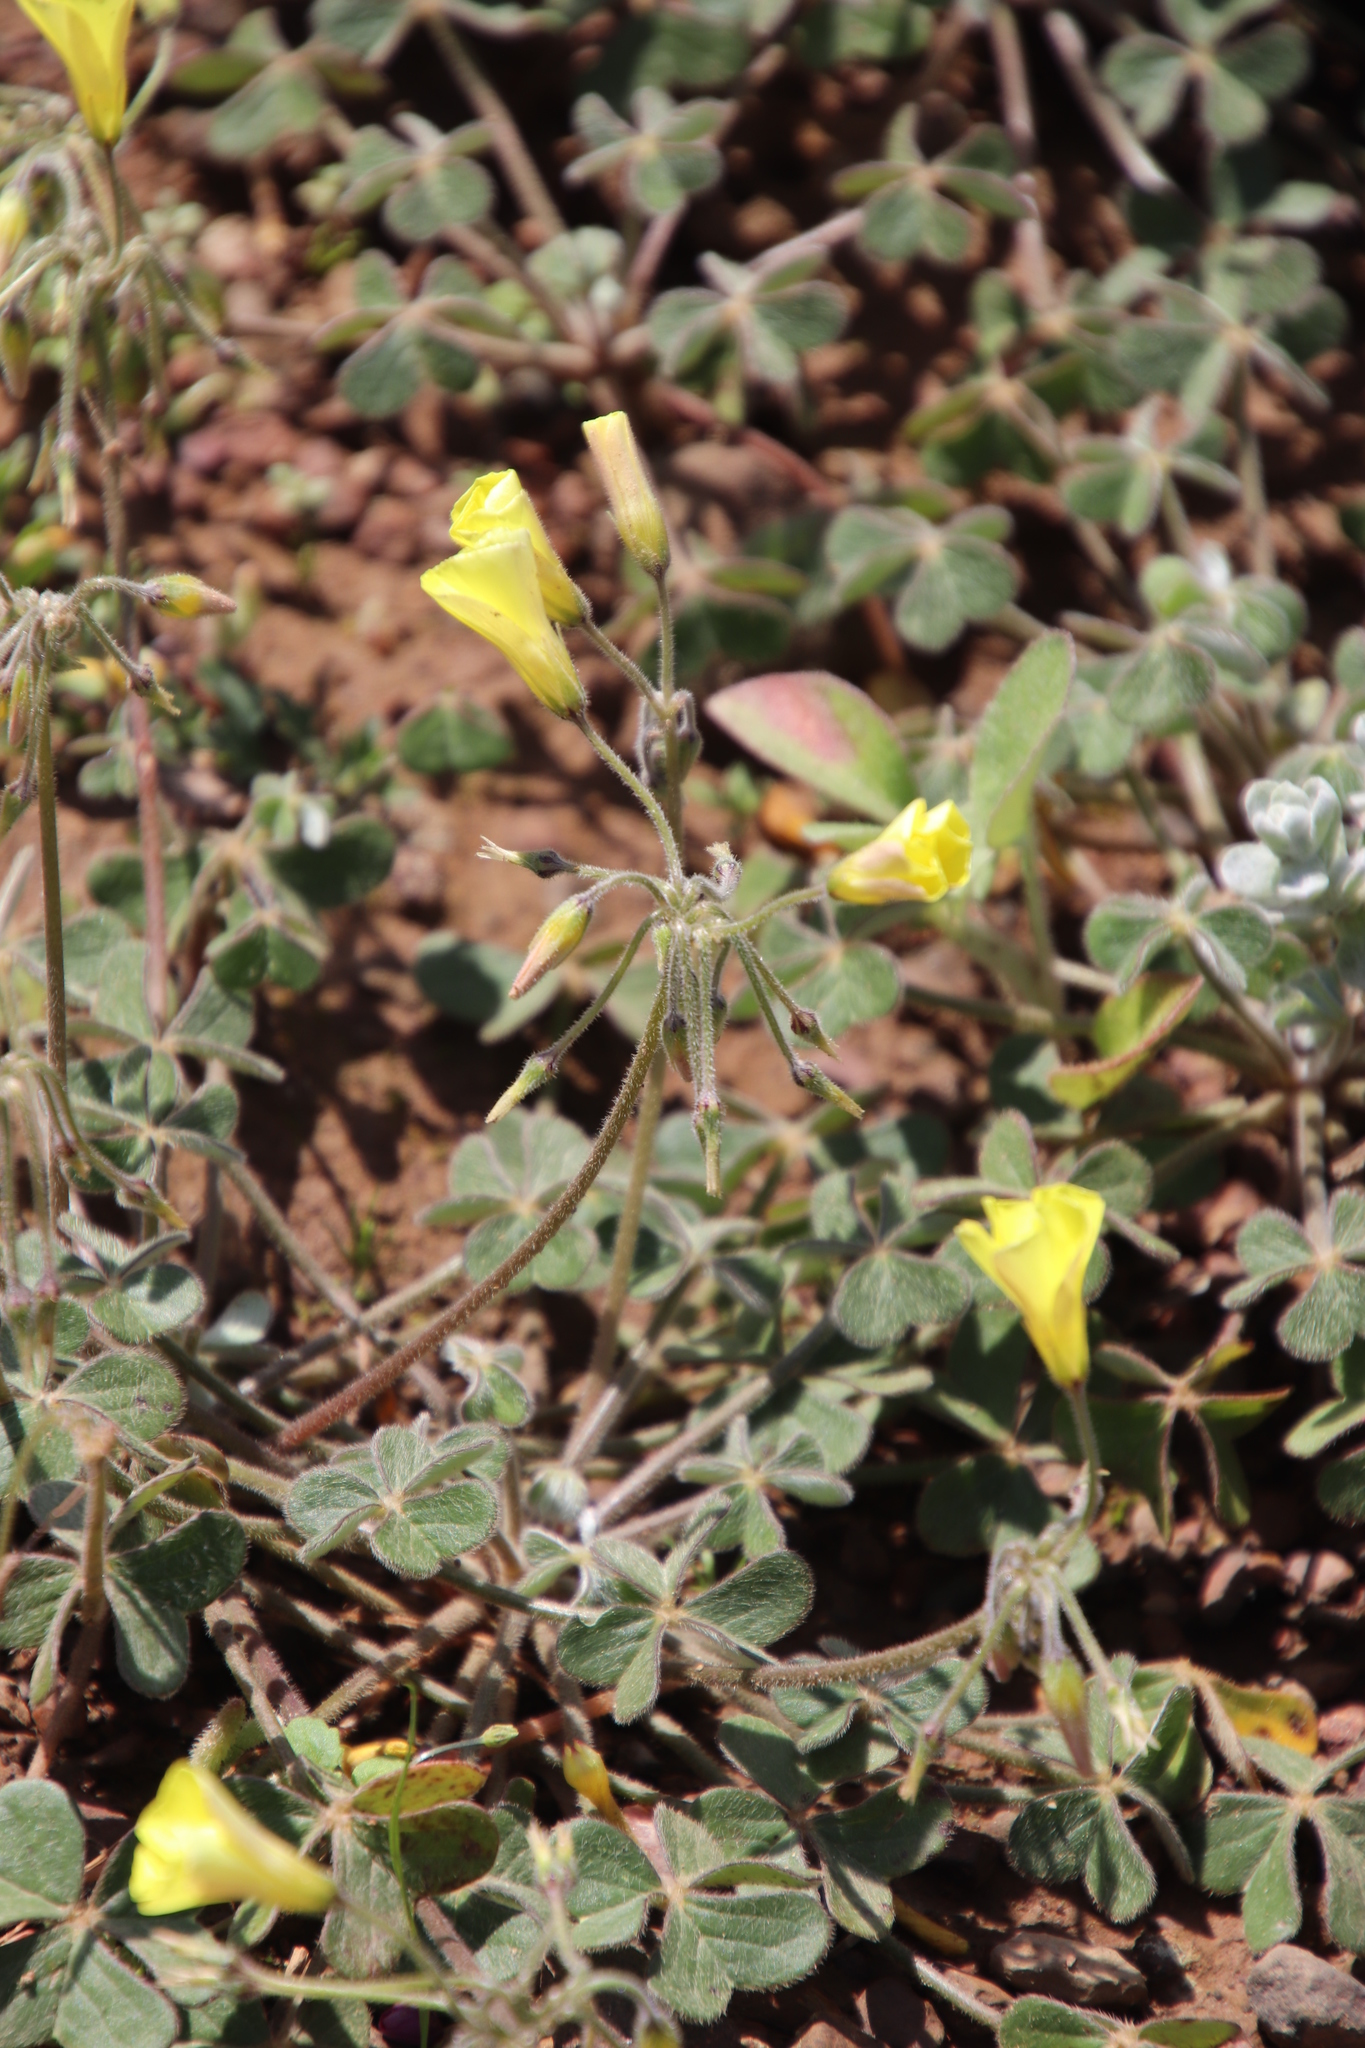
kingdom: Plantae
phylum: Tracheophyta
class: Magnoliopsida
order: Oxalidales
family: Oxalidaceae
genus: Oxalis
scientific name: Oxalis pes-caprae
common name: Bermuda-buttercup
